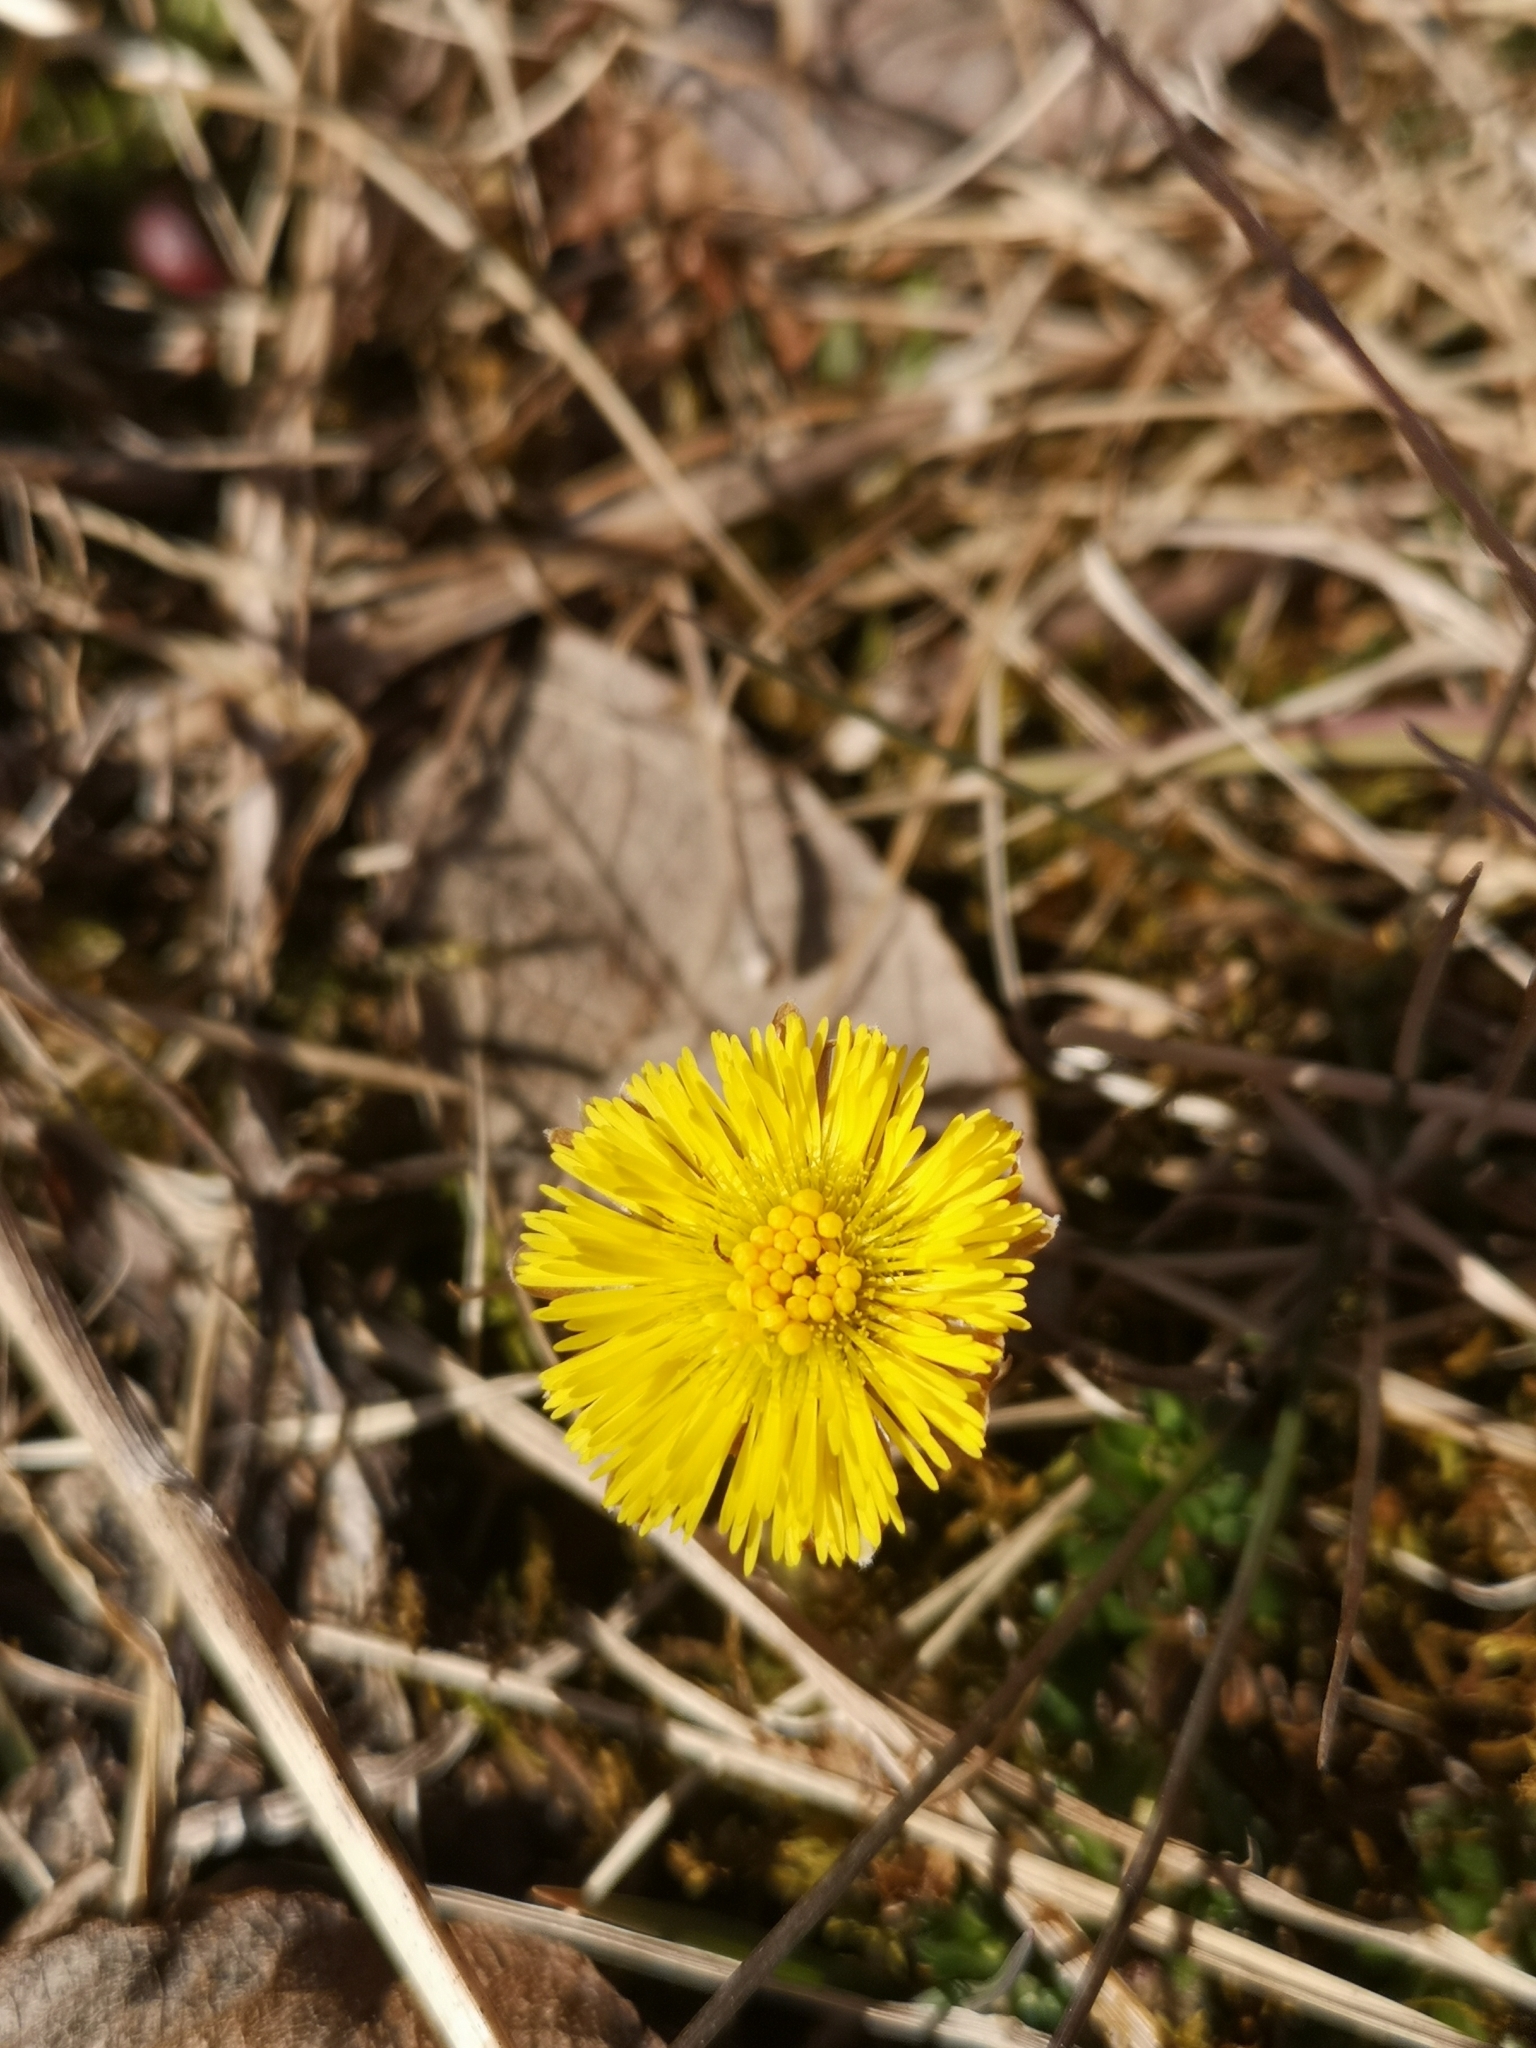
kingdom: Plantae
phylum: Tracheophyta
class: Magnoliopsida
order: Asterales
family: Asteraceae
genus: Tussilago
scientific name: Tussilago farfara
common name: Coltsfoot
